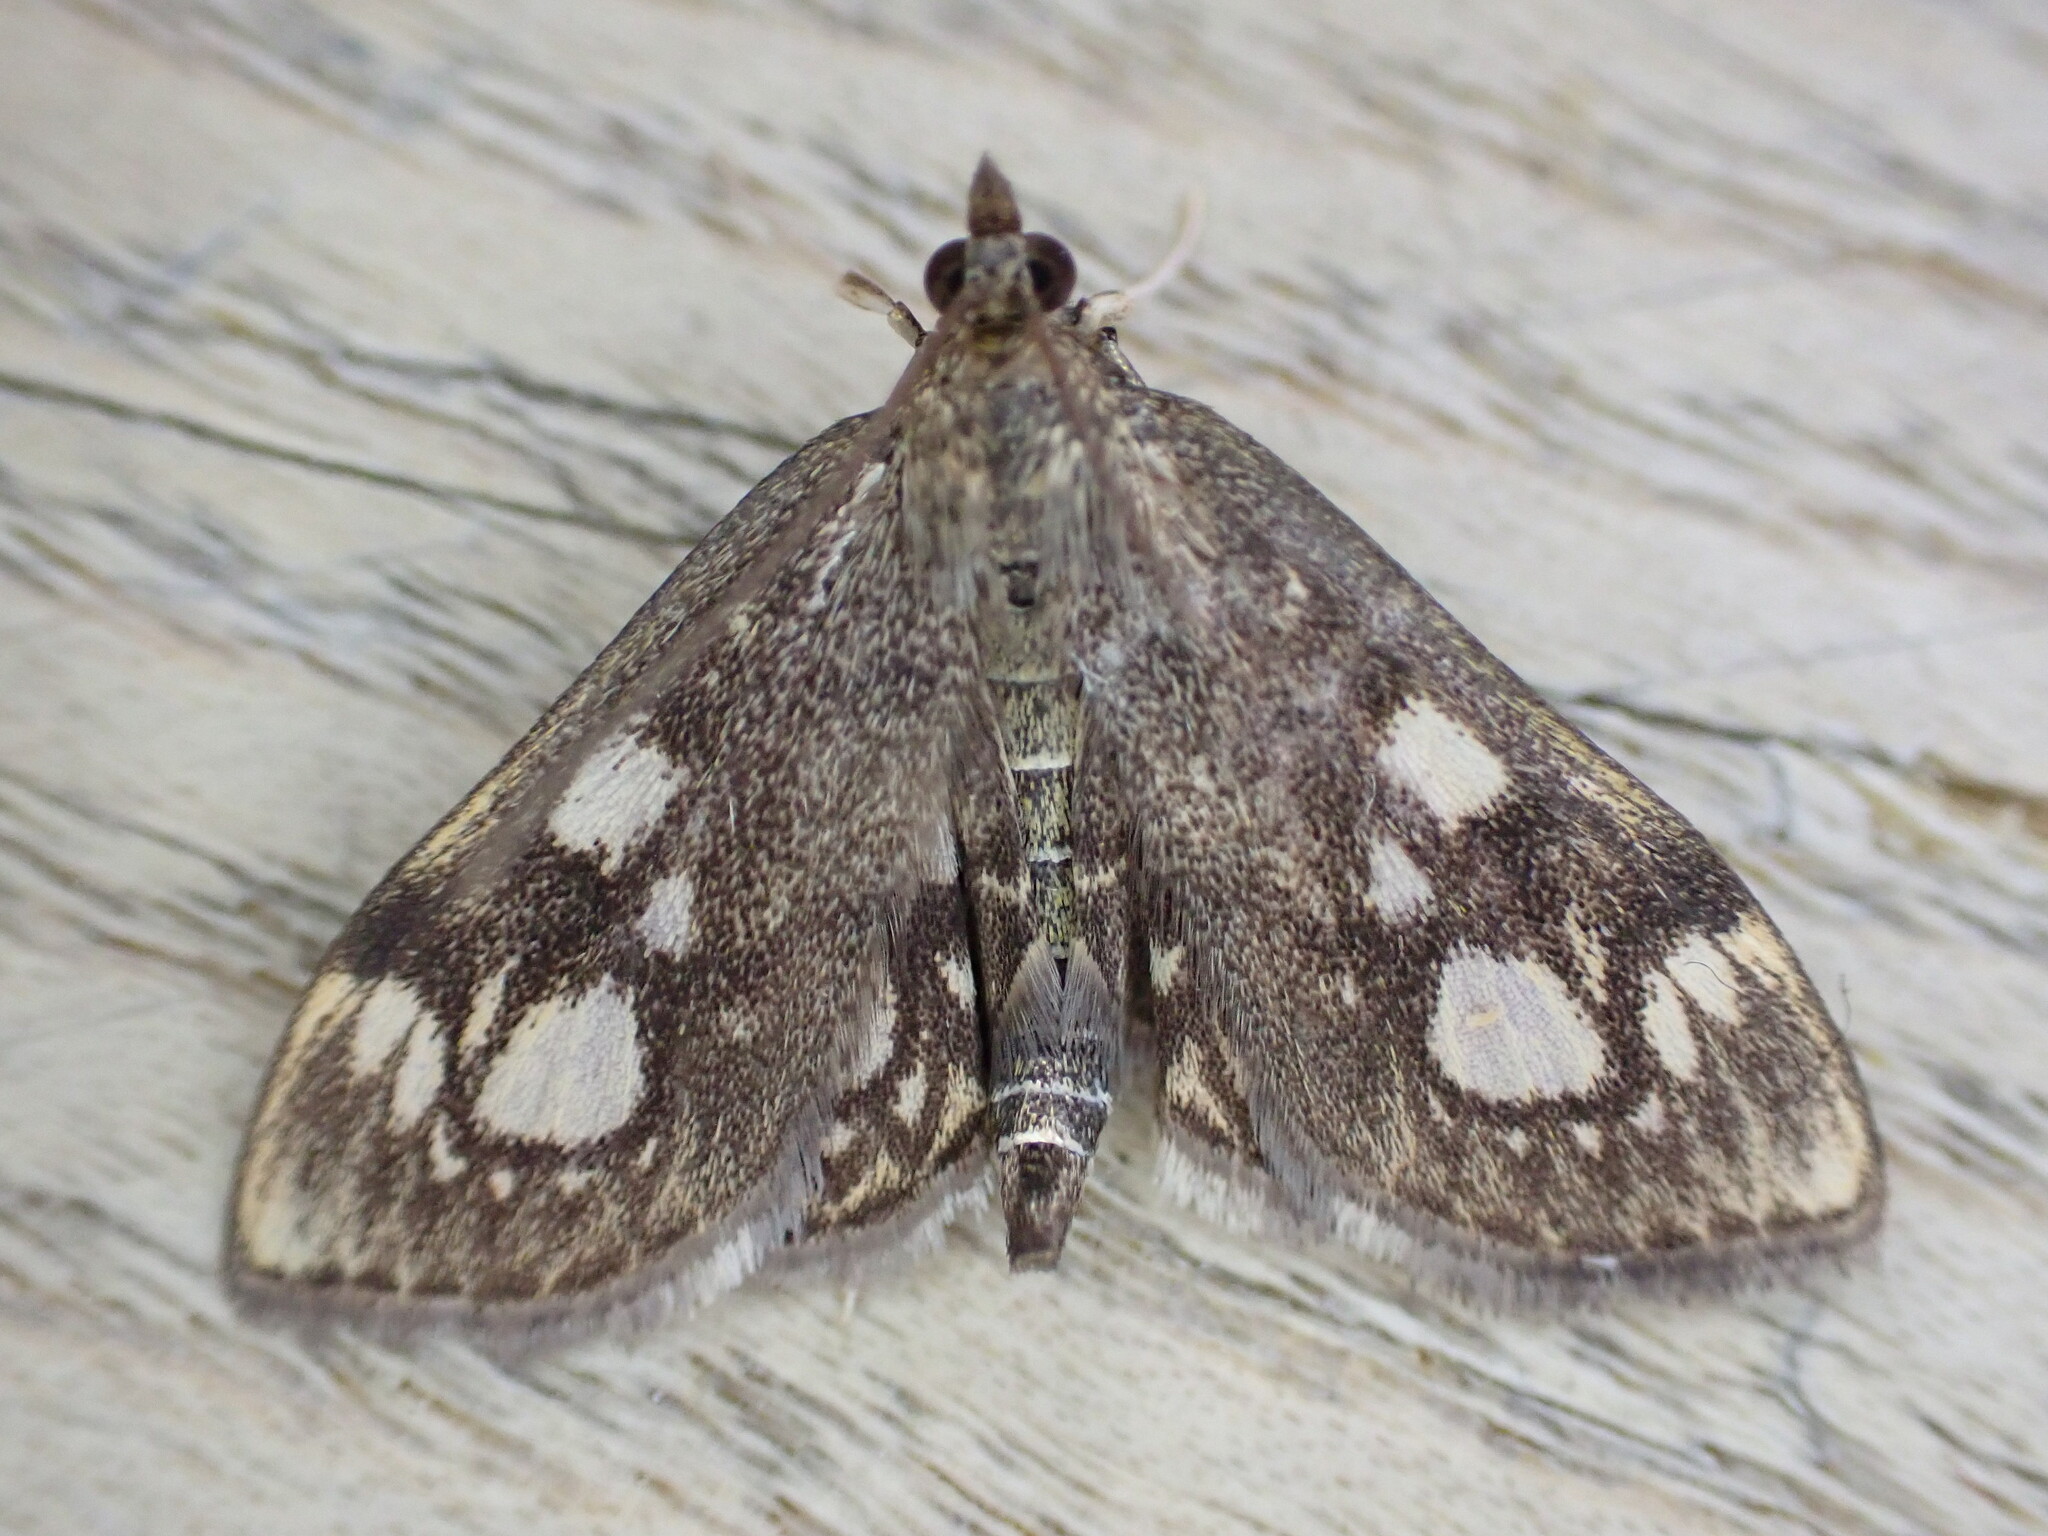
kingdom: Animalia
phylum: Arthropoda
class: Insecta
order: Lepidoptera
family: Crambidae
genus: Anania
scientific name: Anania coronata
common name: Elder pearl
